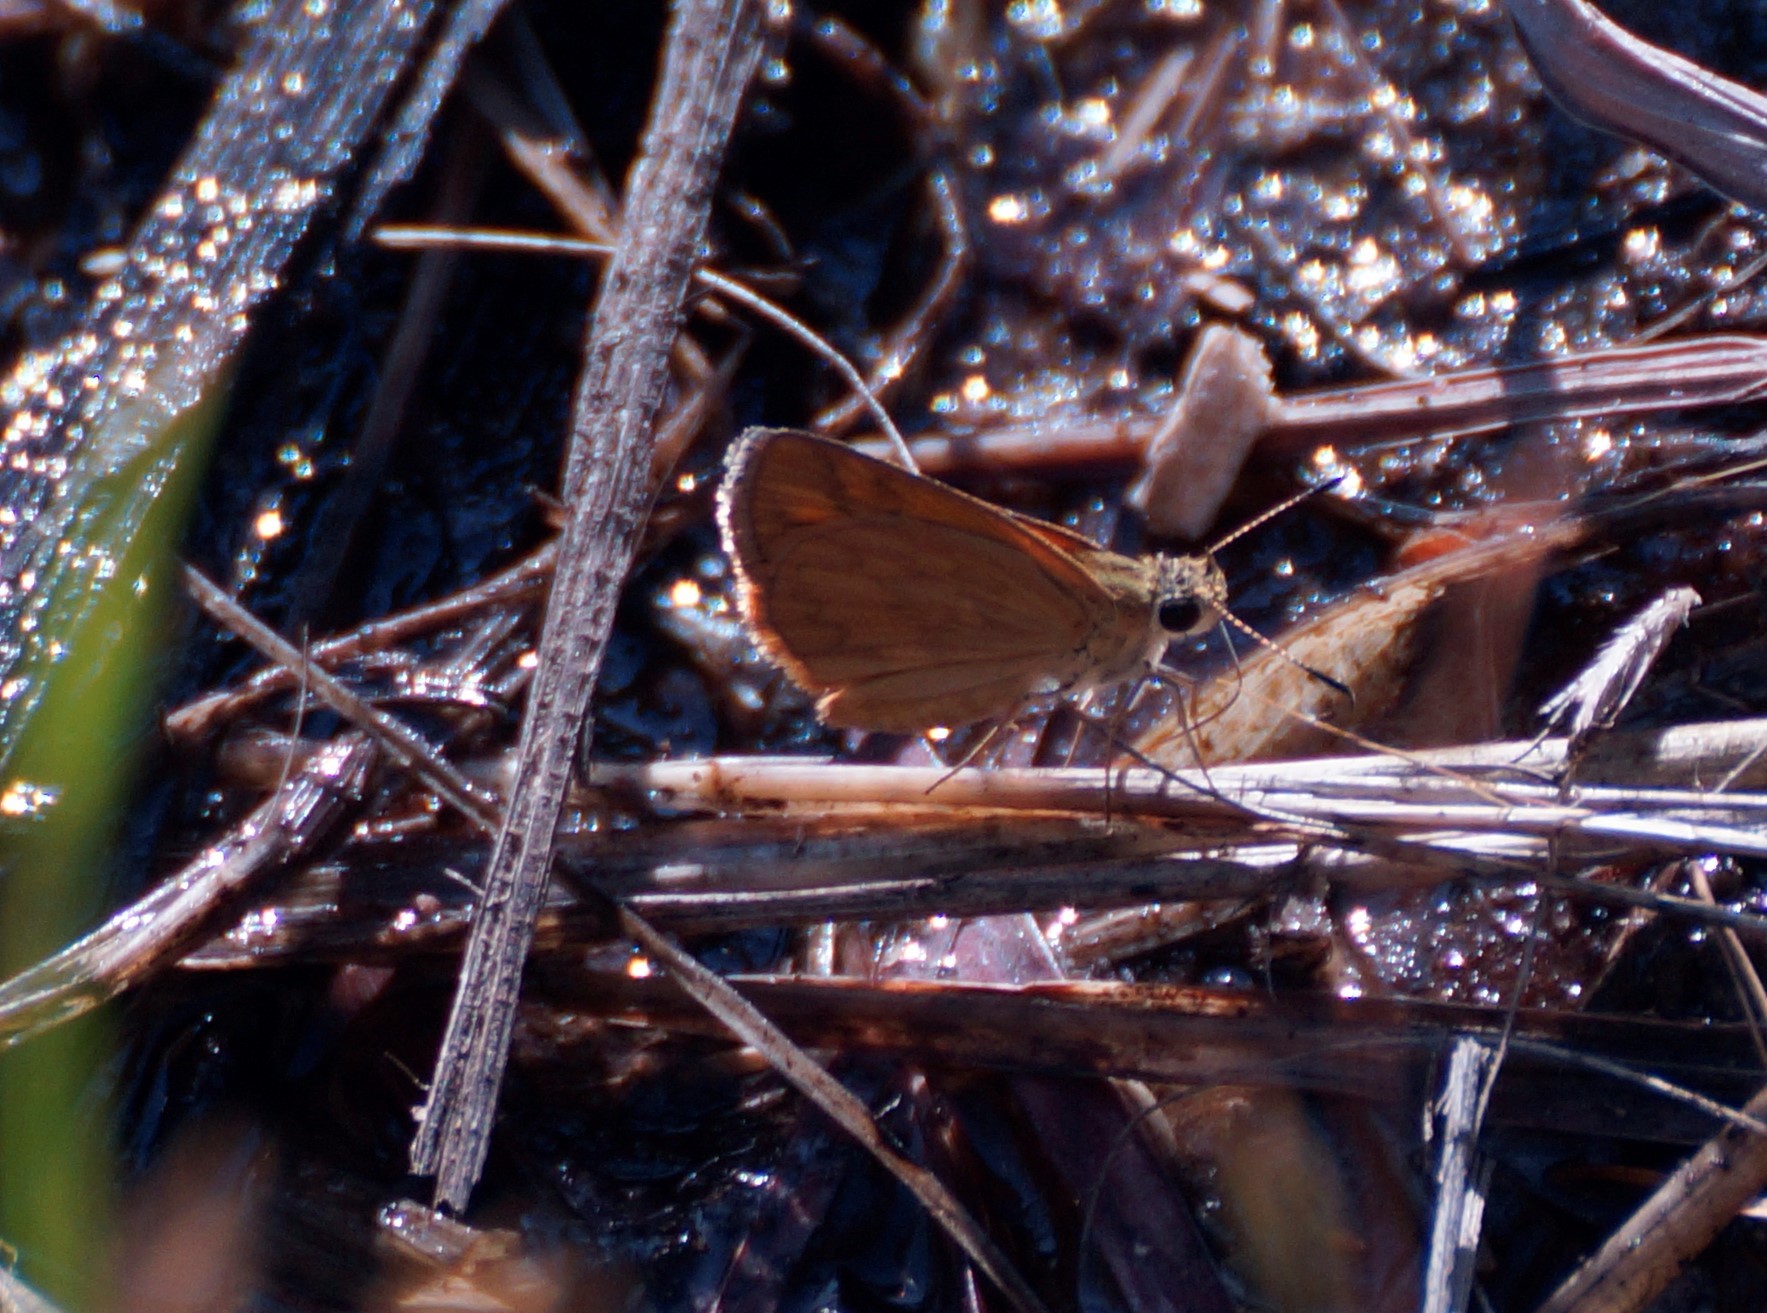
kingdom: Animalia
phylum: Arthropoda
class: Insecta
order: Lepidoptera
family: Hesperiidae
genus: Suniana
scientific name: Suniana lascivia
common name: Dingy dart
